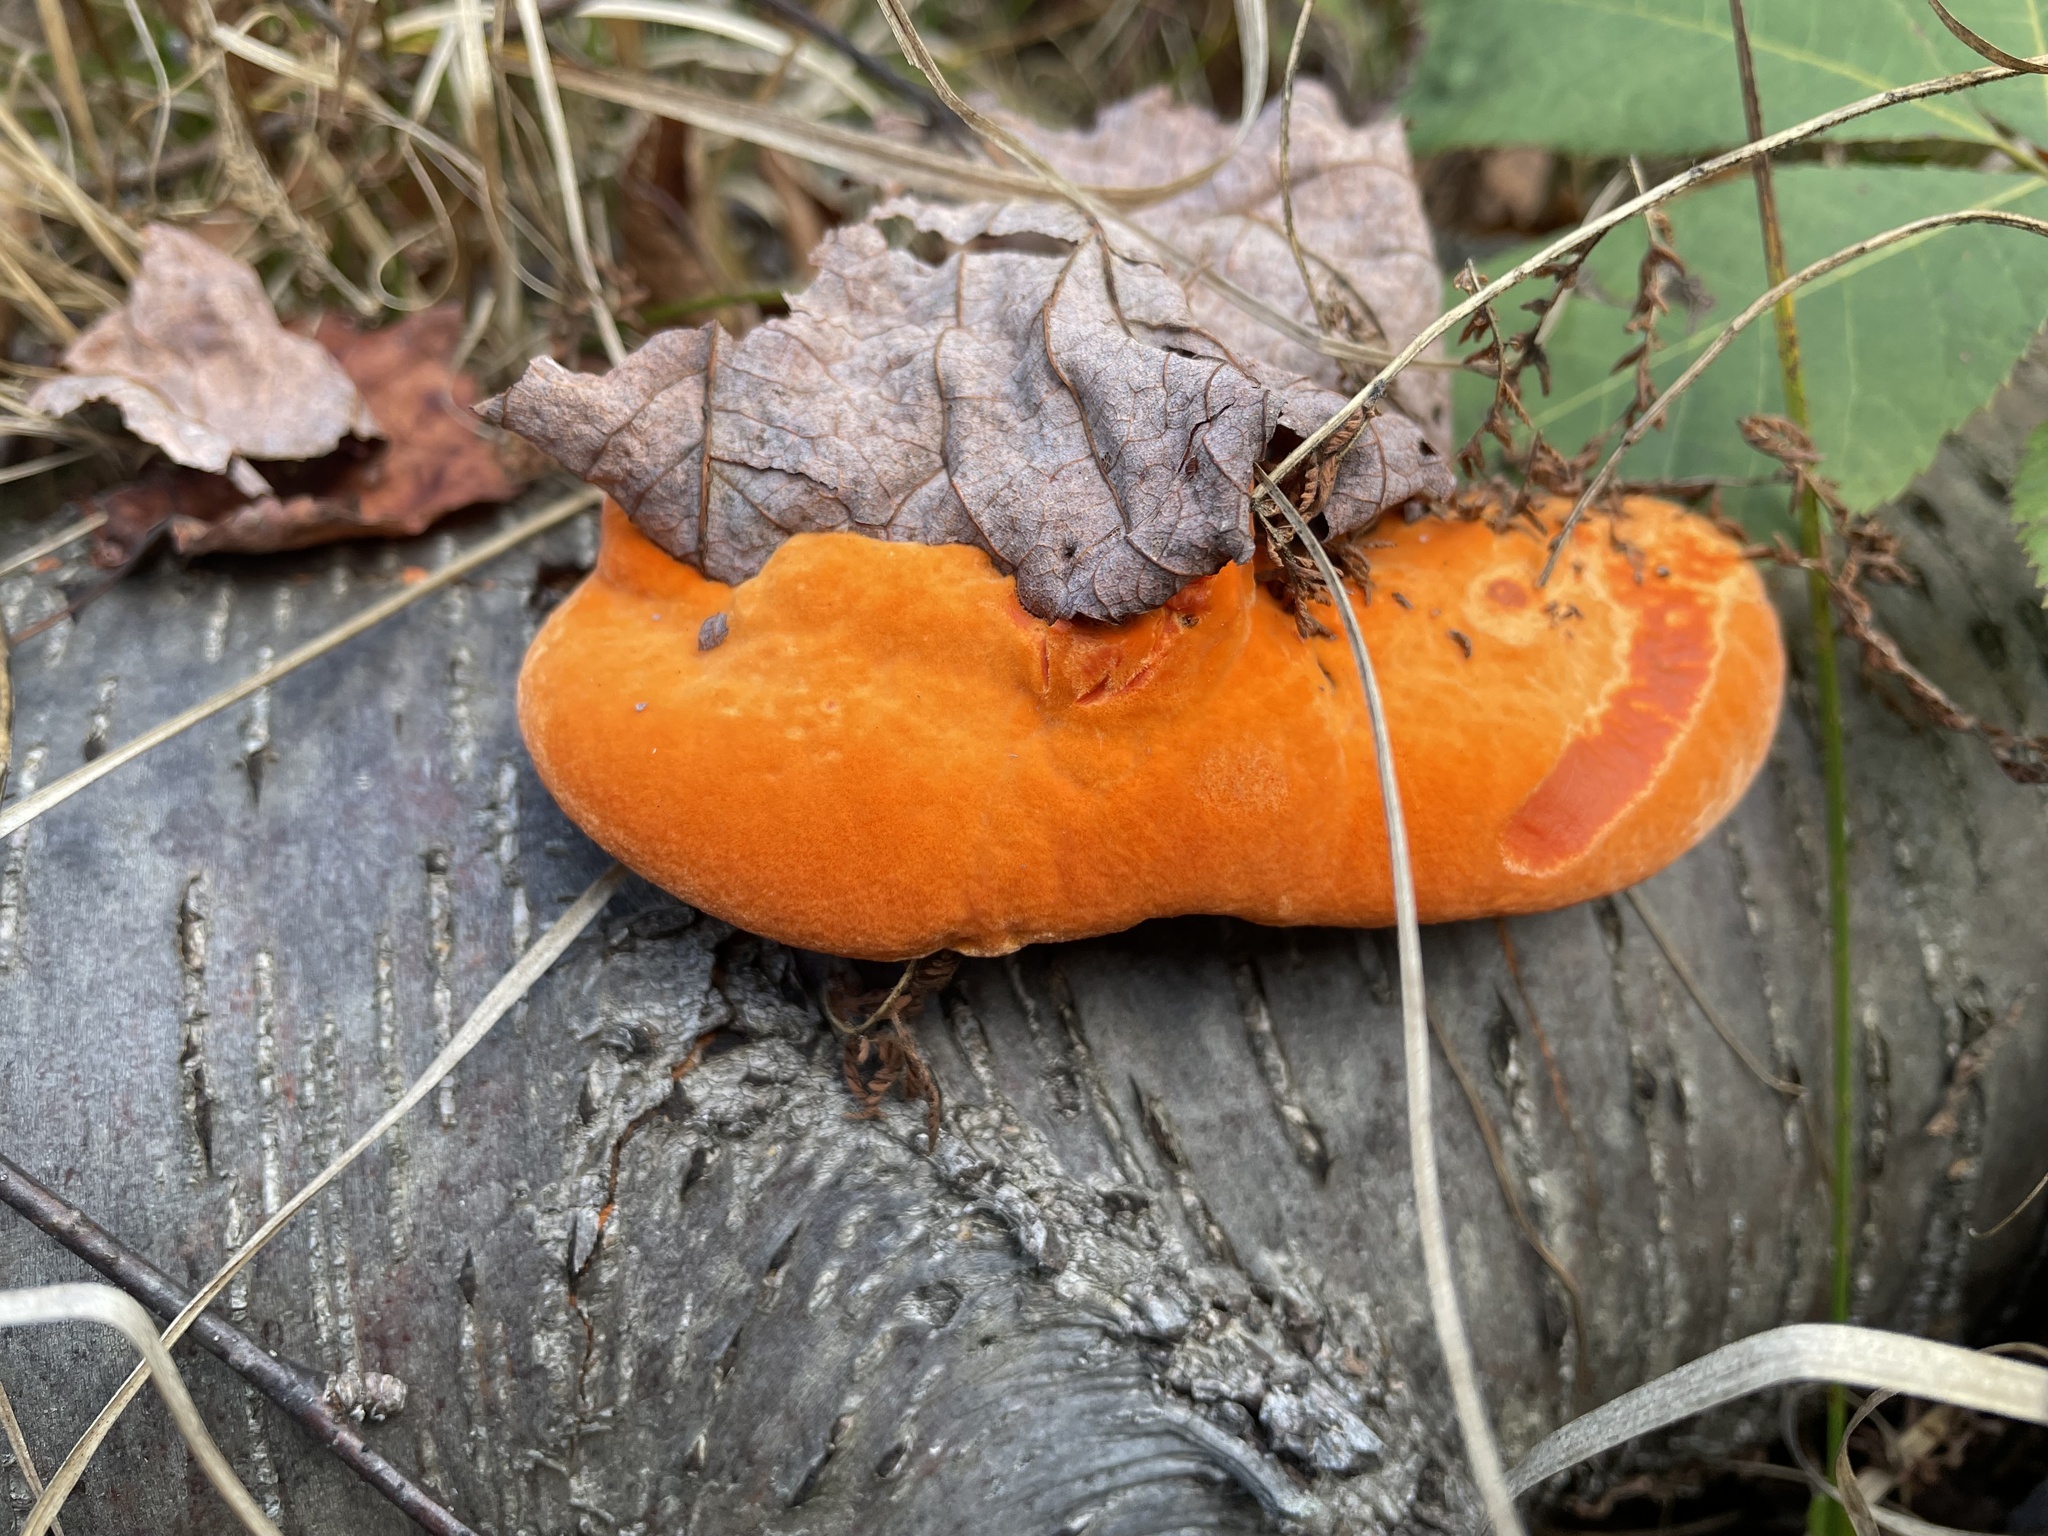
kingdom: Fungi
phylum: Basidiomycota
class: Agaricomycetes
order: Polyporales
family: Polyporaceae
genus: Trametes
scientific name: Trametes cinnabarina
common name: Northern cinnabar polypore
